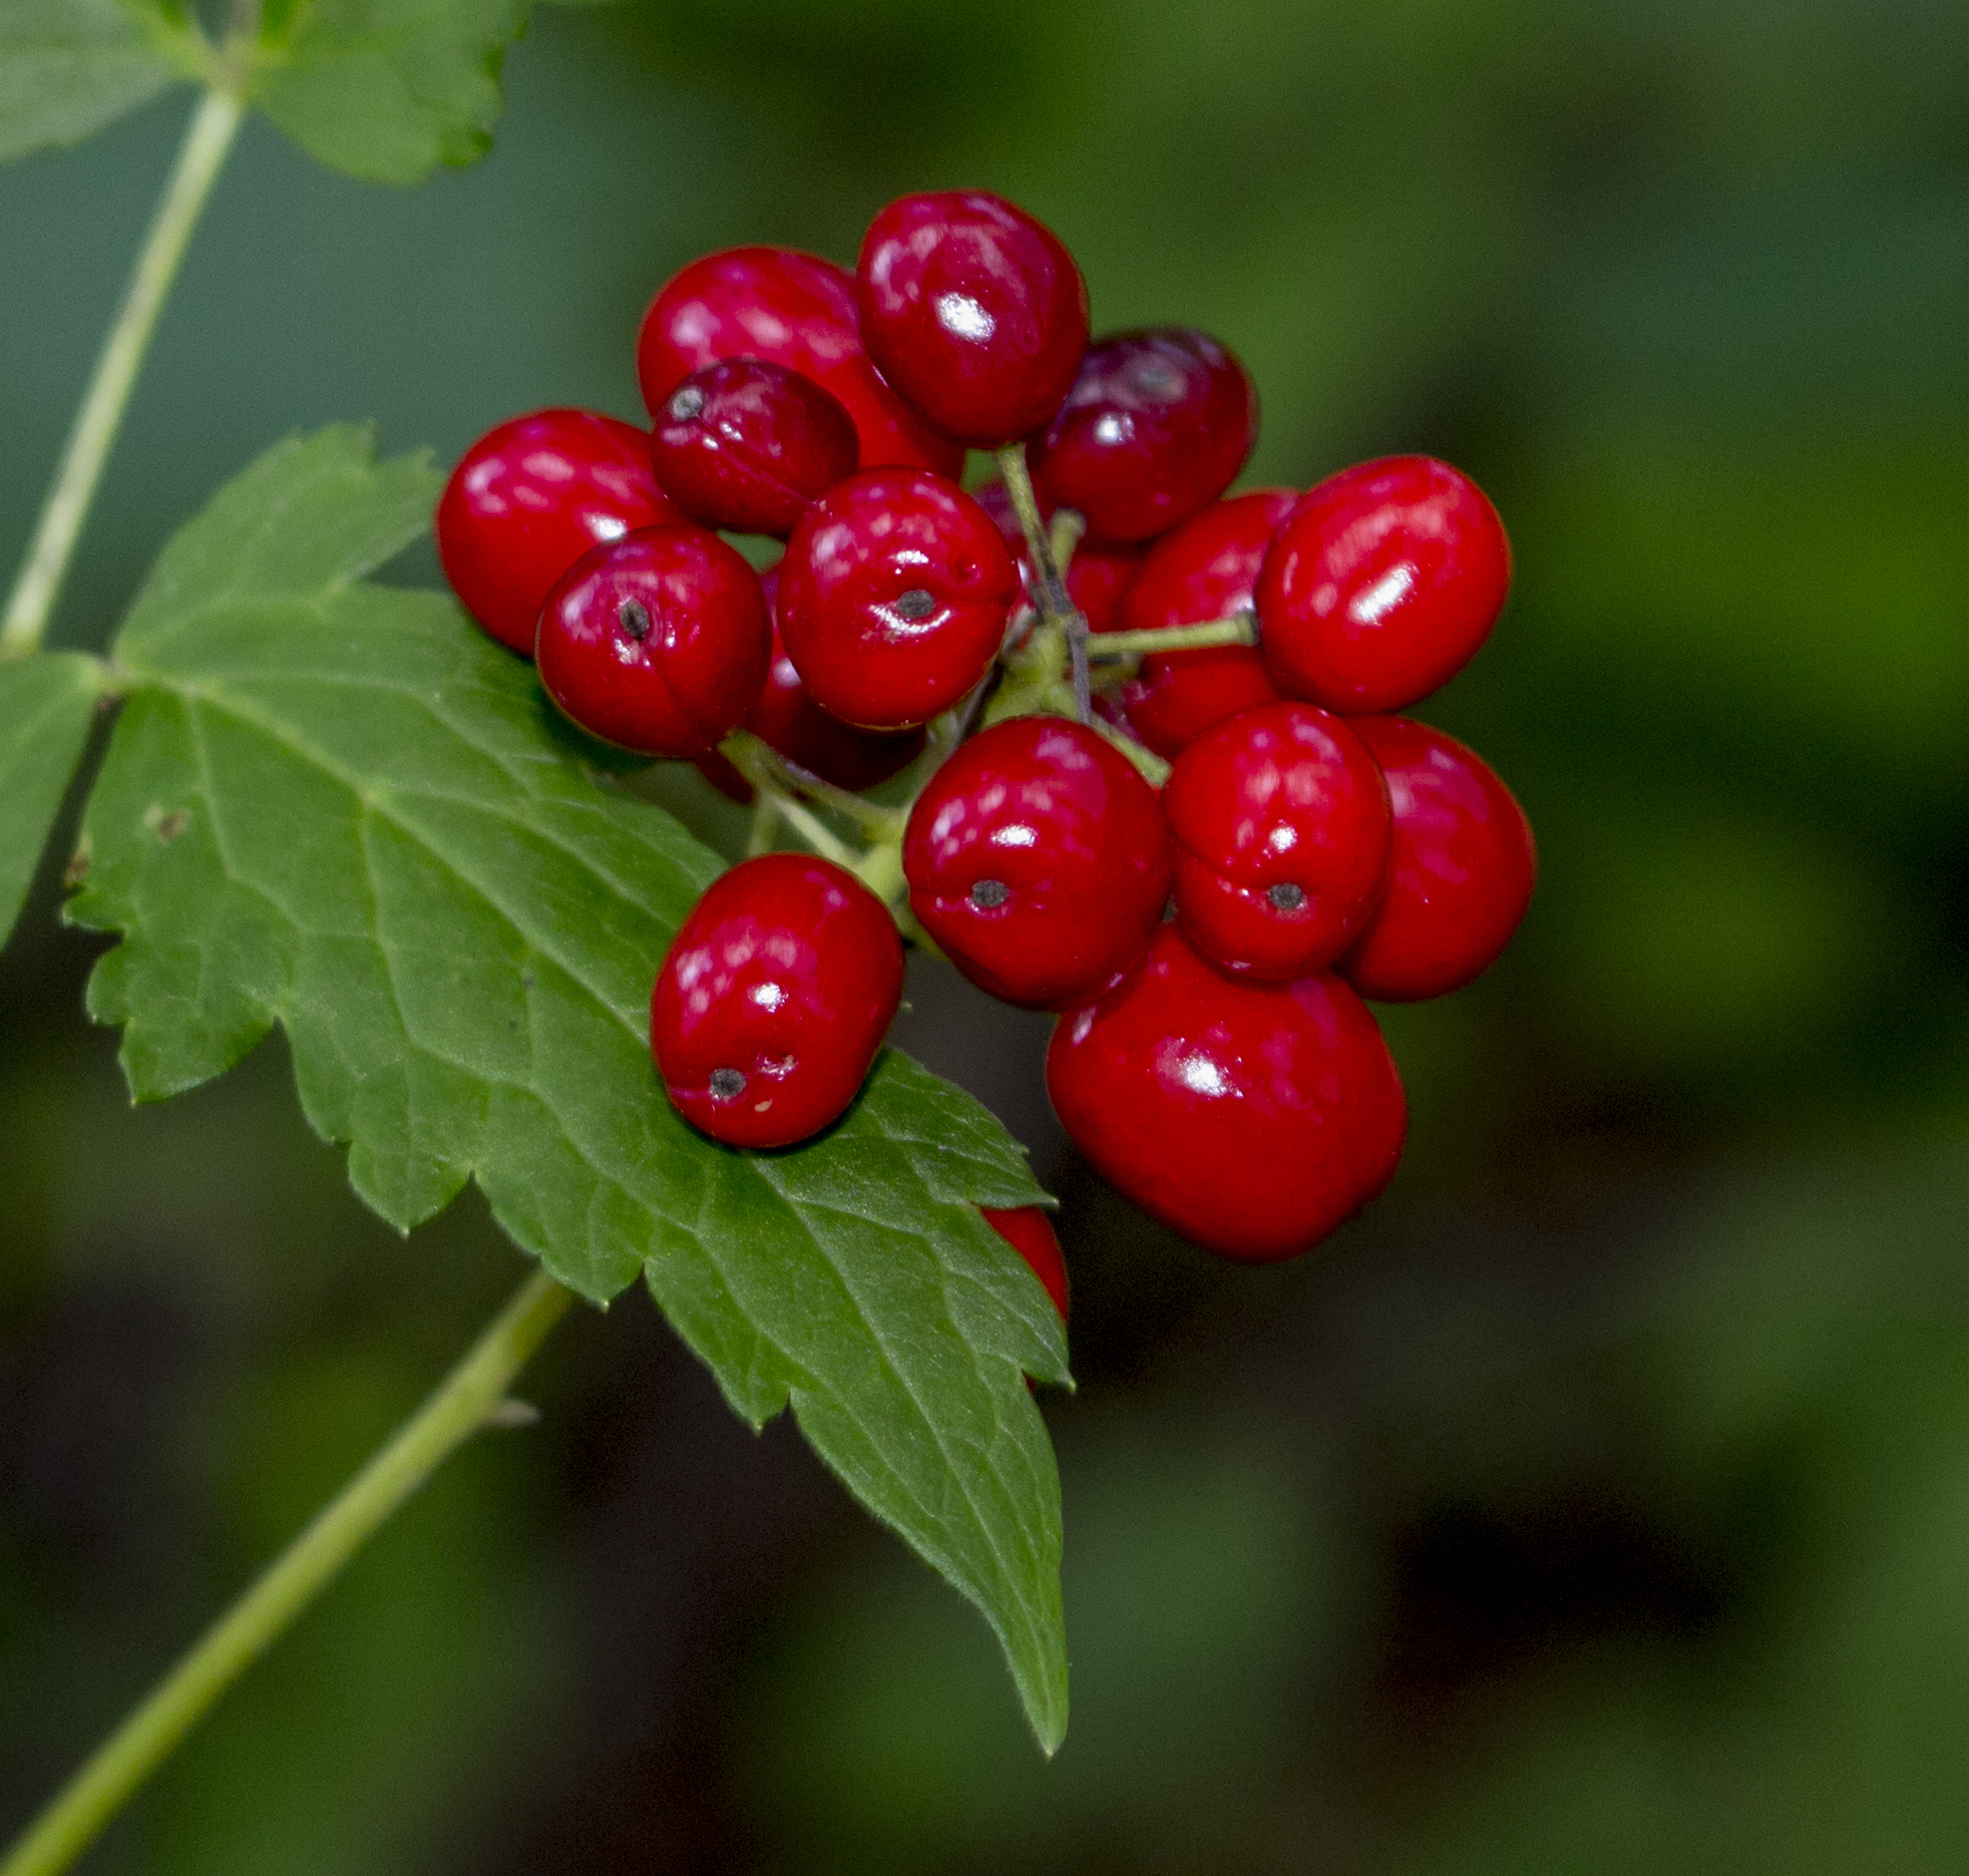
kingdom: Plantae
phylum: Tracheophyta
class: Magnoliopsida
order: Ranunculales
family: Ranunculaceae
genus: Actaea
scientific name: Actaea rubra
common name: Red baneberry
